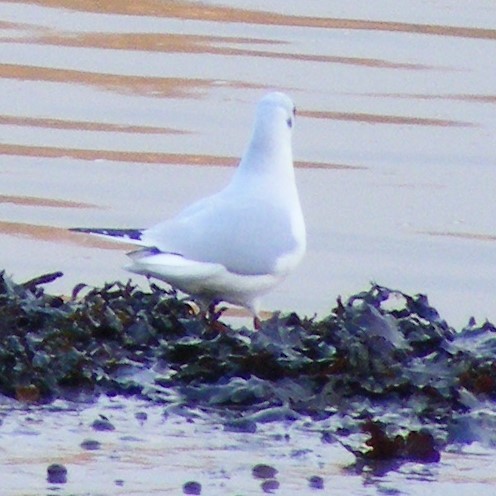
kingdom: Animalia
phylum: Chordata
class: Aves
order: Charadriiformes
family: Laridae
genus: Chroicocephalus
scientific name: Chroicocephalus ridibundus
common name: Black-headed gull
